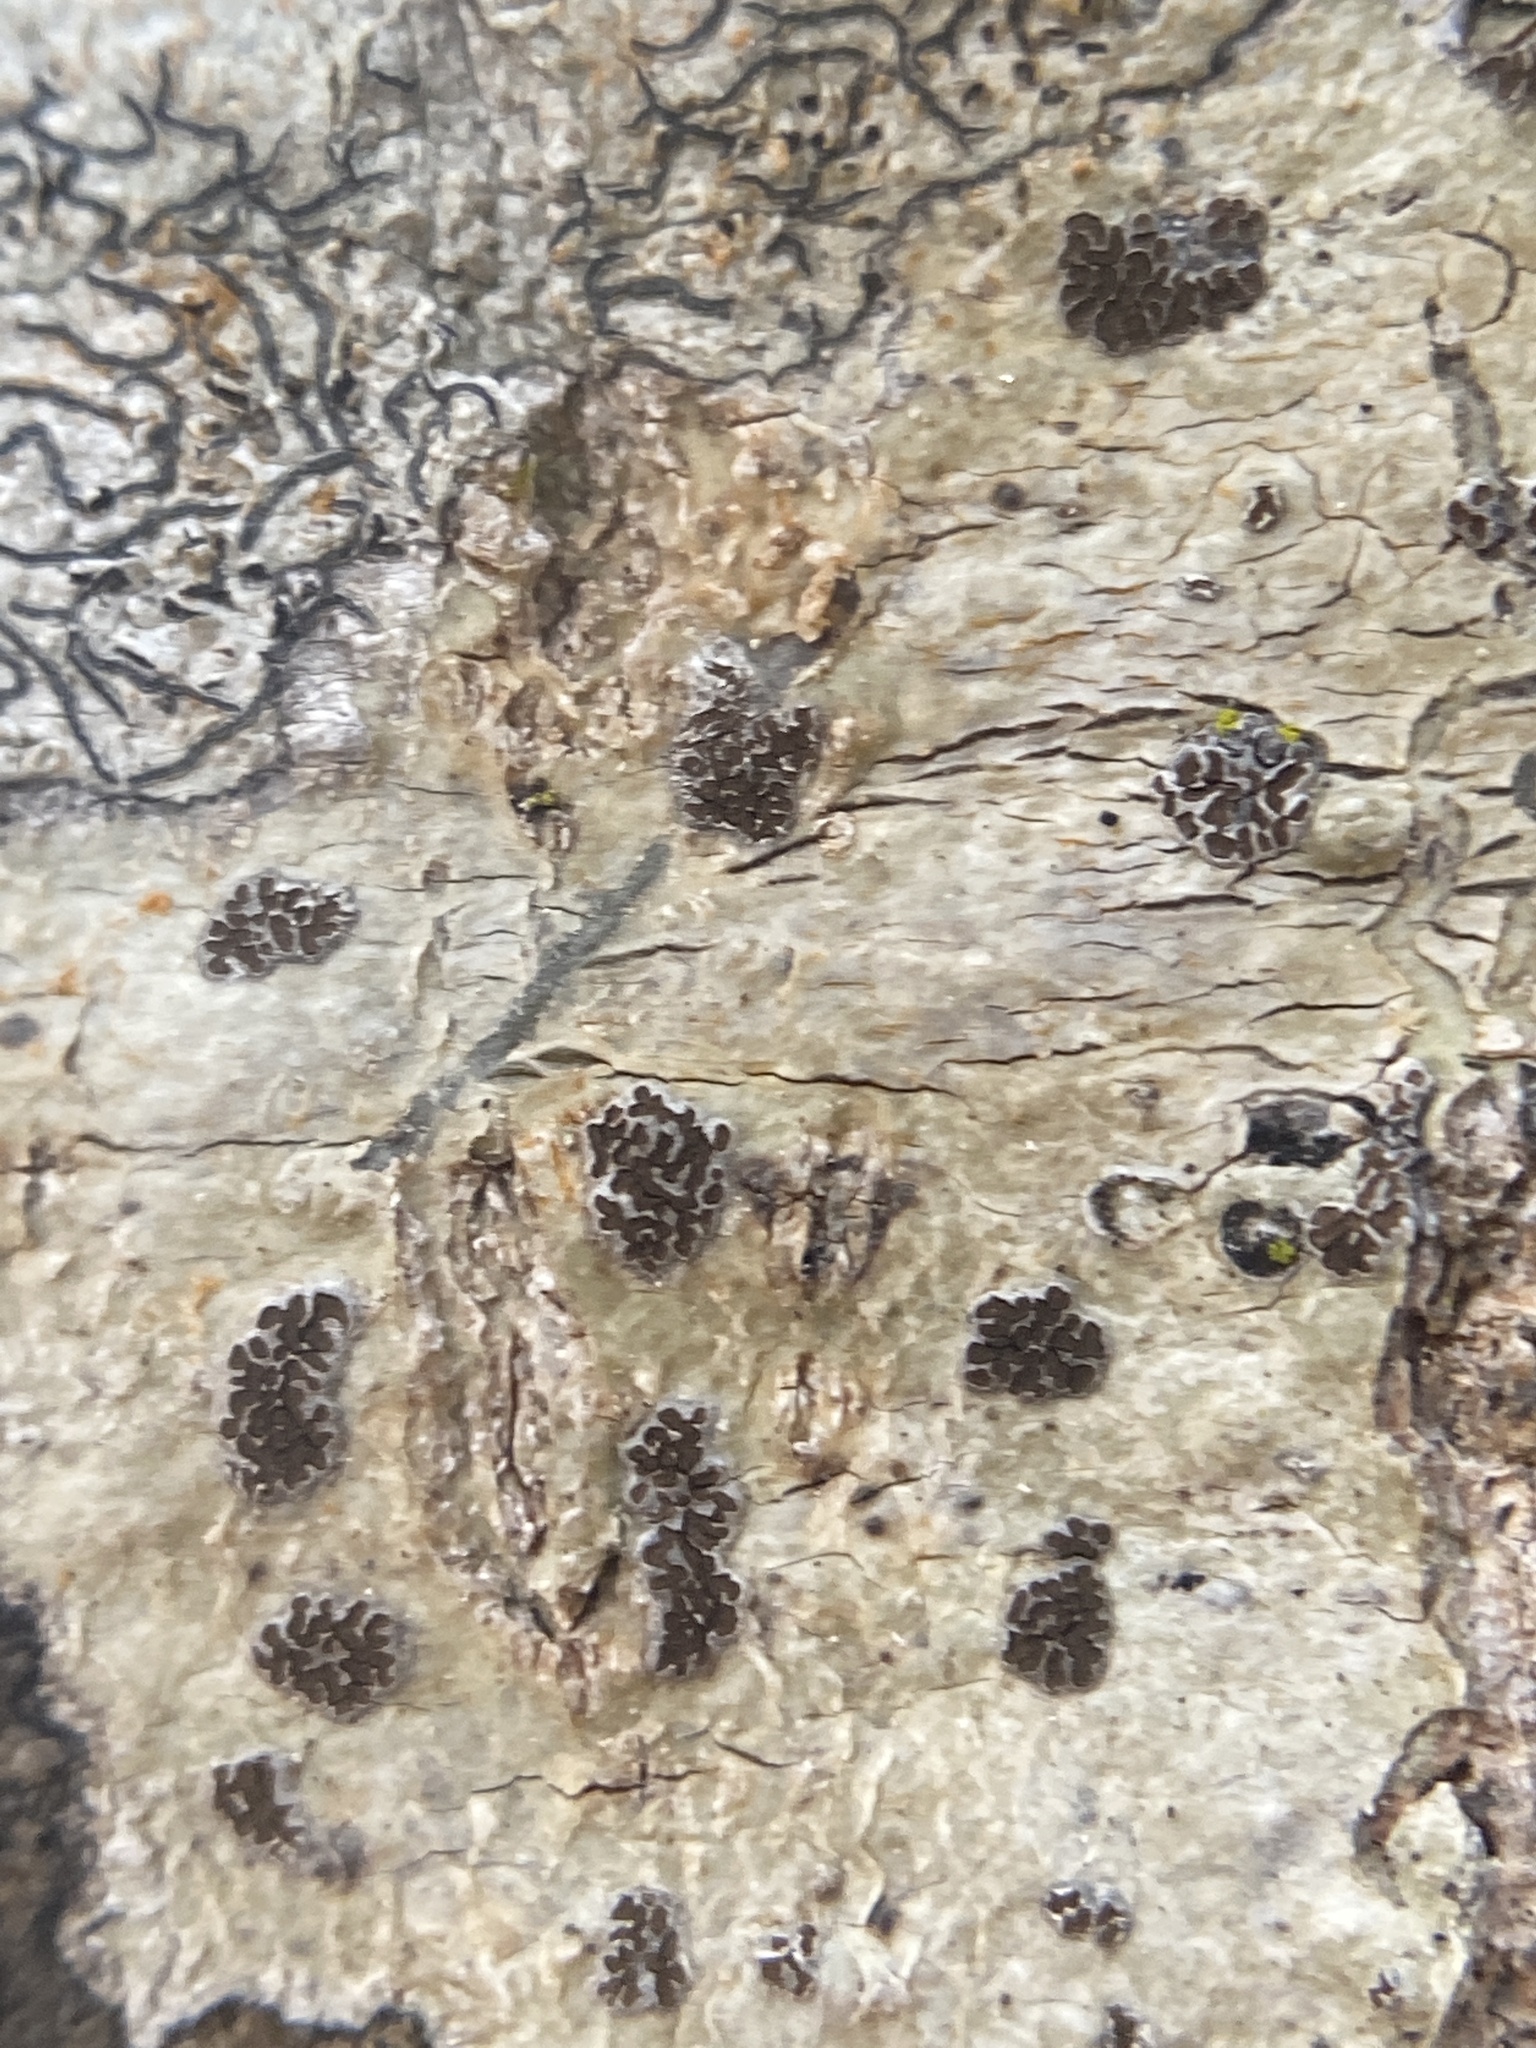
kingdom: Fungi
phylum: Ascomycota
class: Lecanoromycetes
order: Ostropales
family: Graphidaceae
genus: Glyphis
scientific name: Glyphis cicatricosa
